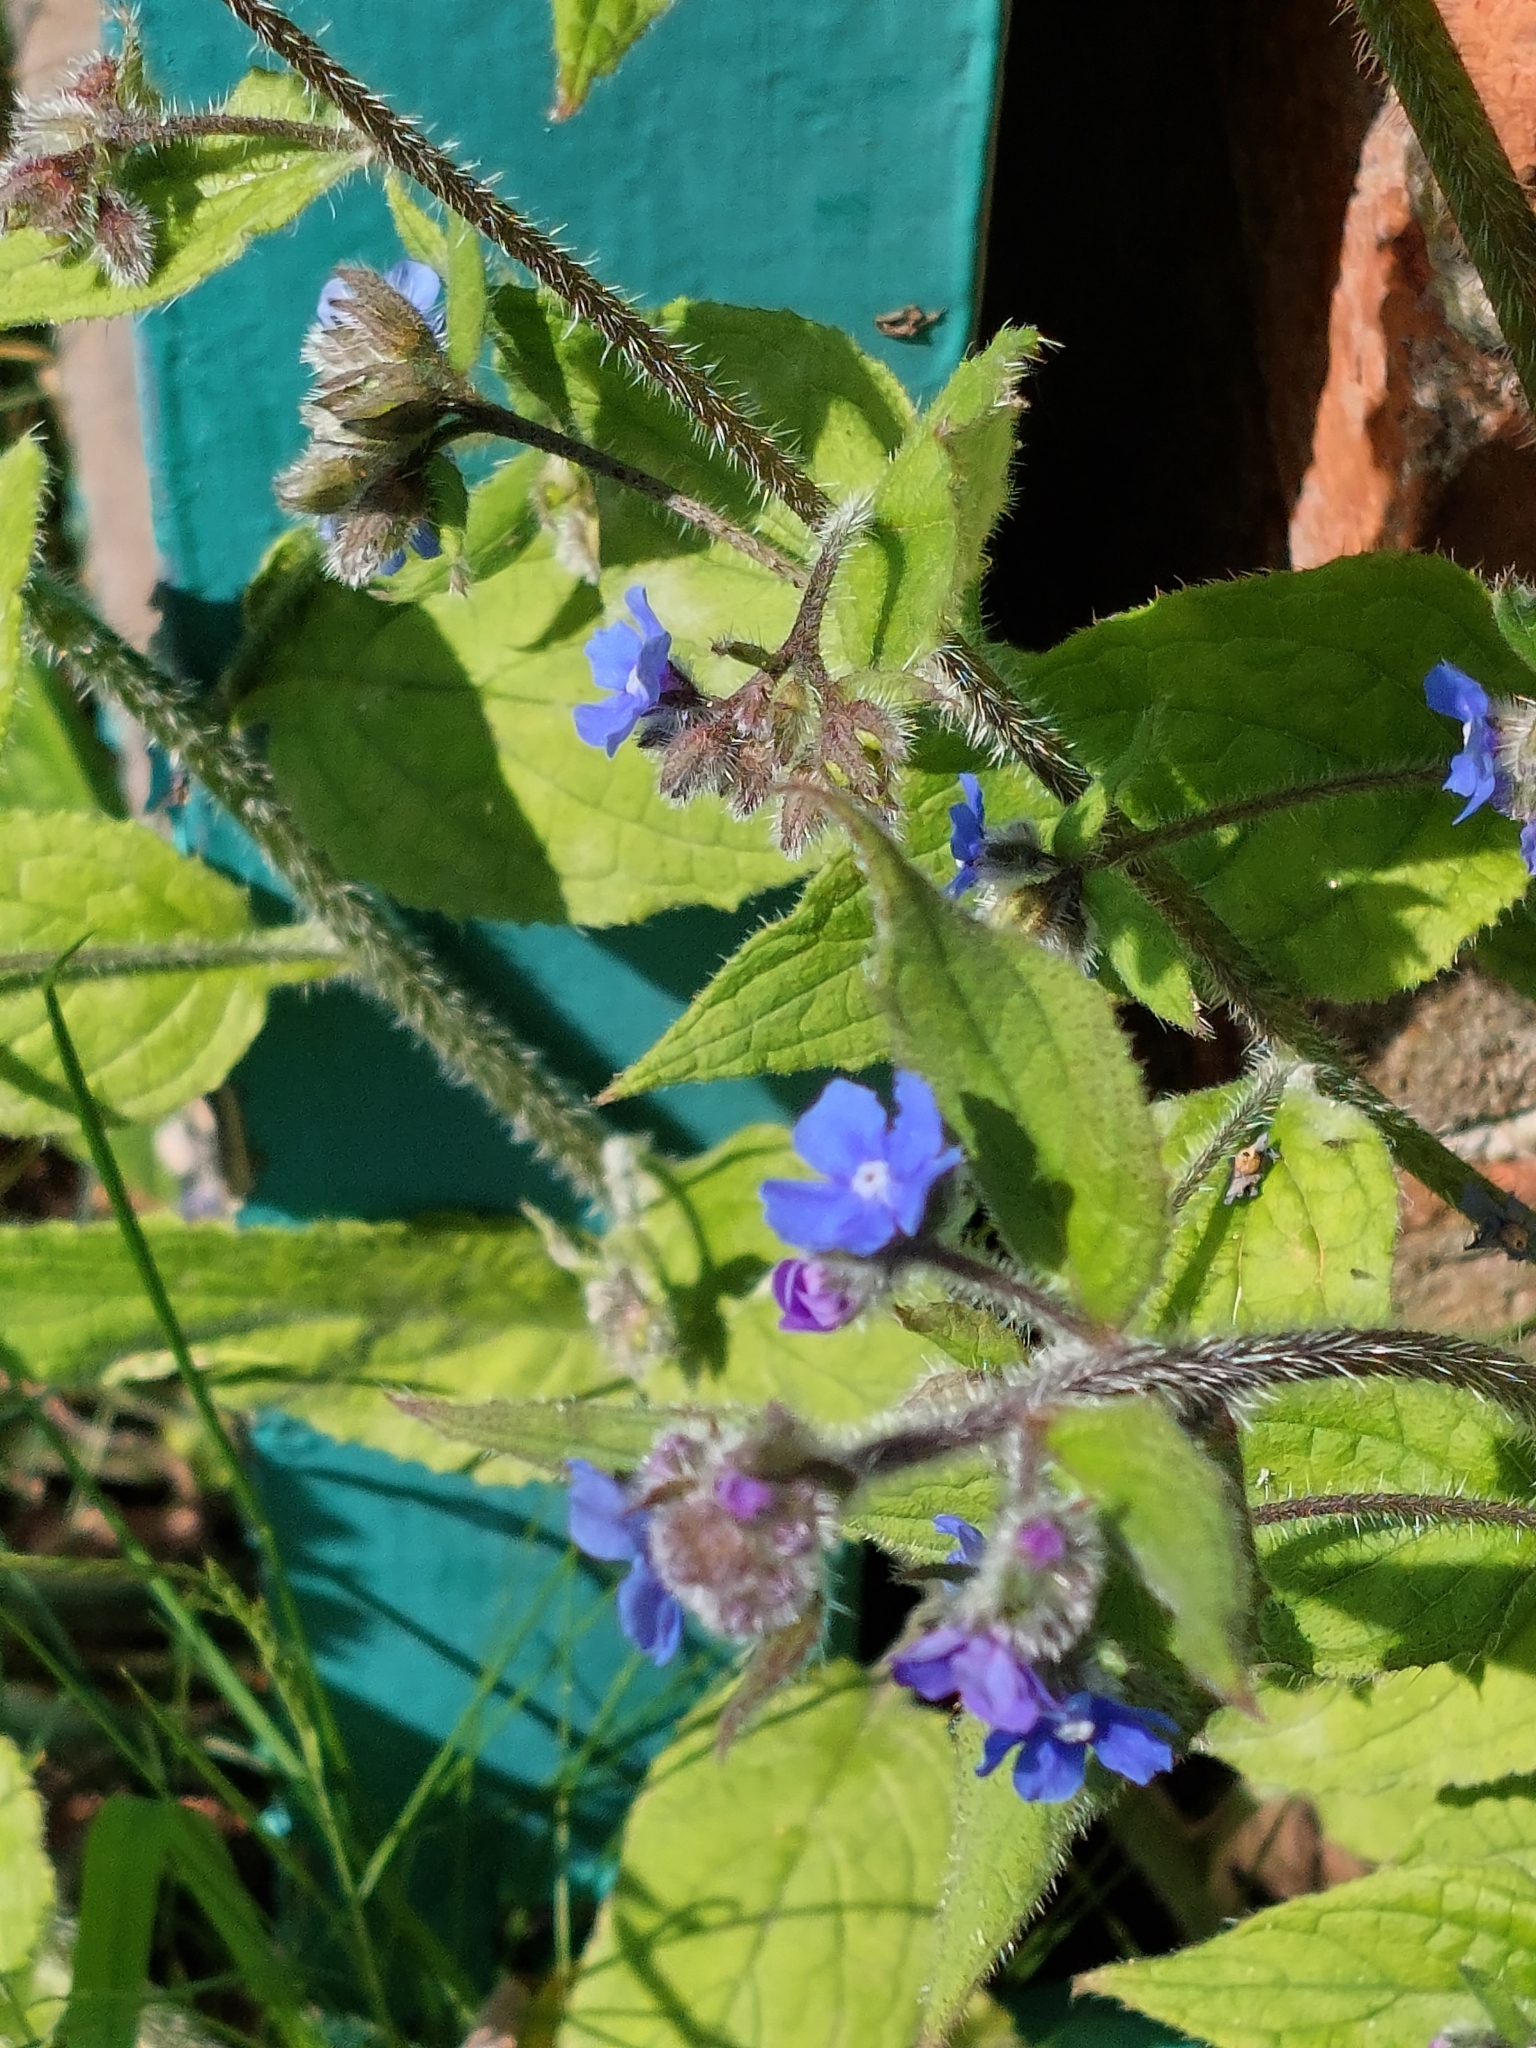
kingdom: Plantae
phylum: Tracheophyta
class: Magnoliopsida
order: Boraginales
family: Boraginaceae
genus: Pentaglottis
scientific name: Pentaglottis sempervirens
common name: Green alkanet
